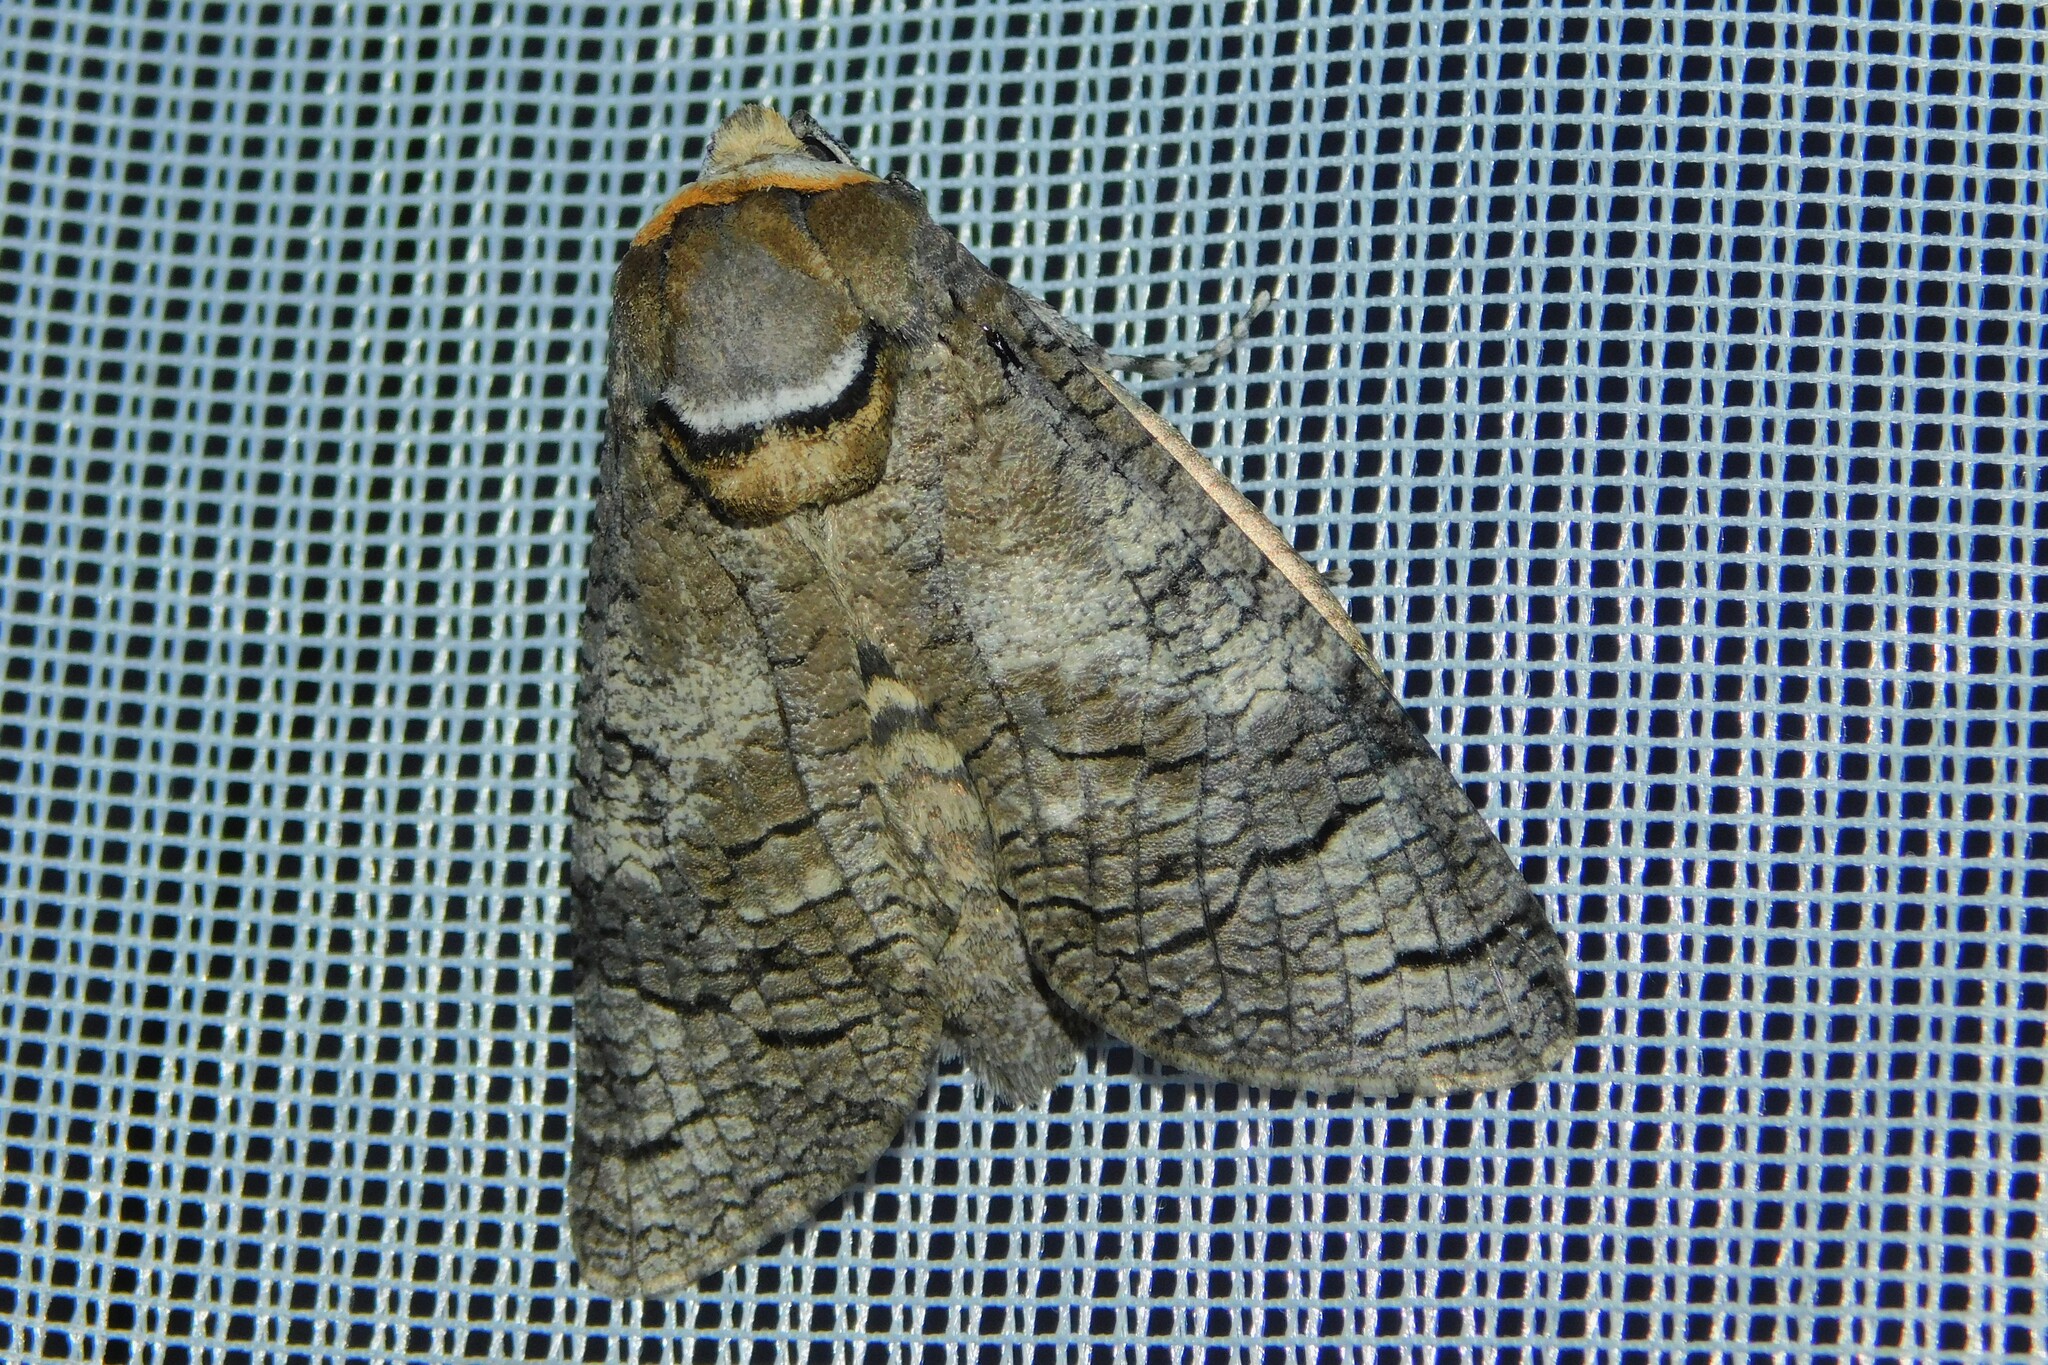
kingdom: Animalia
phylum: Arthropoda
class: Insecta
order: Lepidoptera
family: Cossidae
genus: Cossus
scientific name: Cossus cossus
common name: Goat moth
